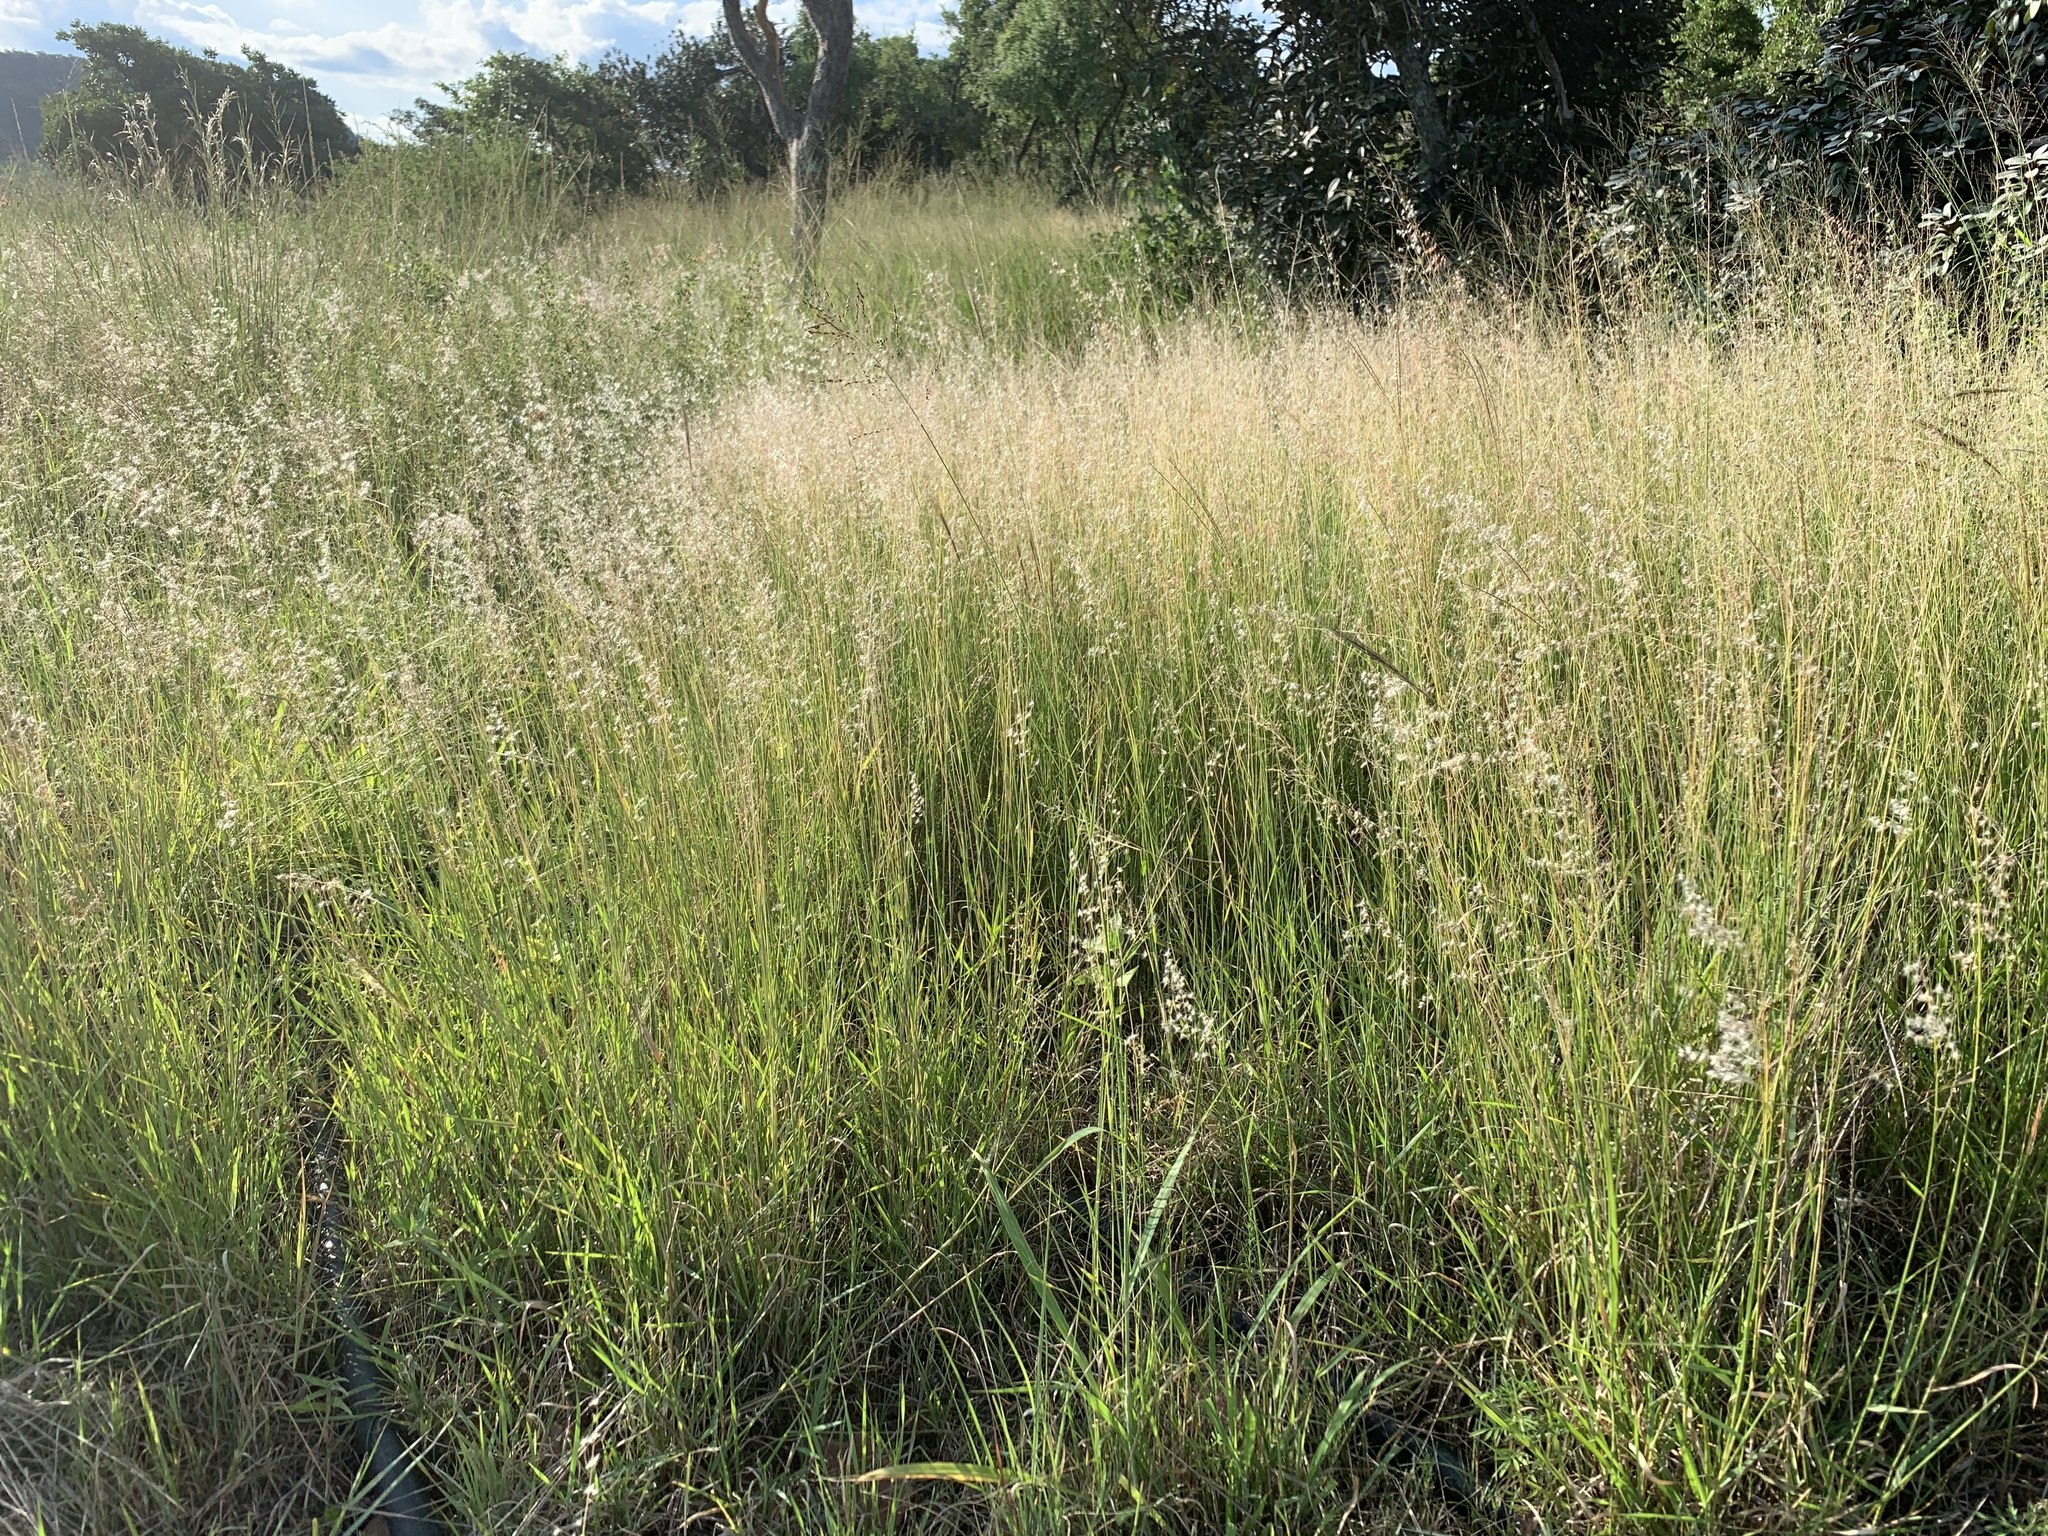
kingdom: Plantae
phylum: Tracheophyta
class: Liliopsida
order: Poales
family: Poaceae
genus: Melinis
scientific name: Melinis repens
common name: Rose natal grass
